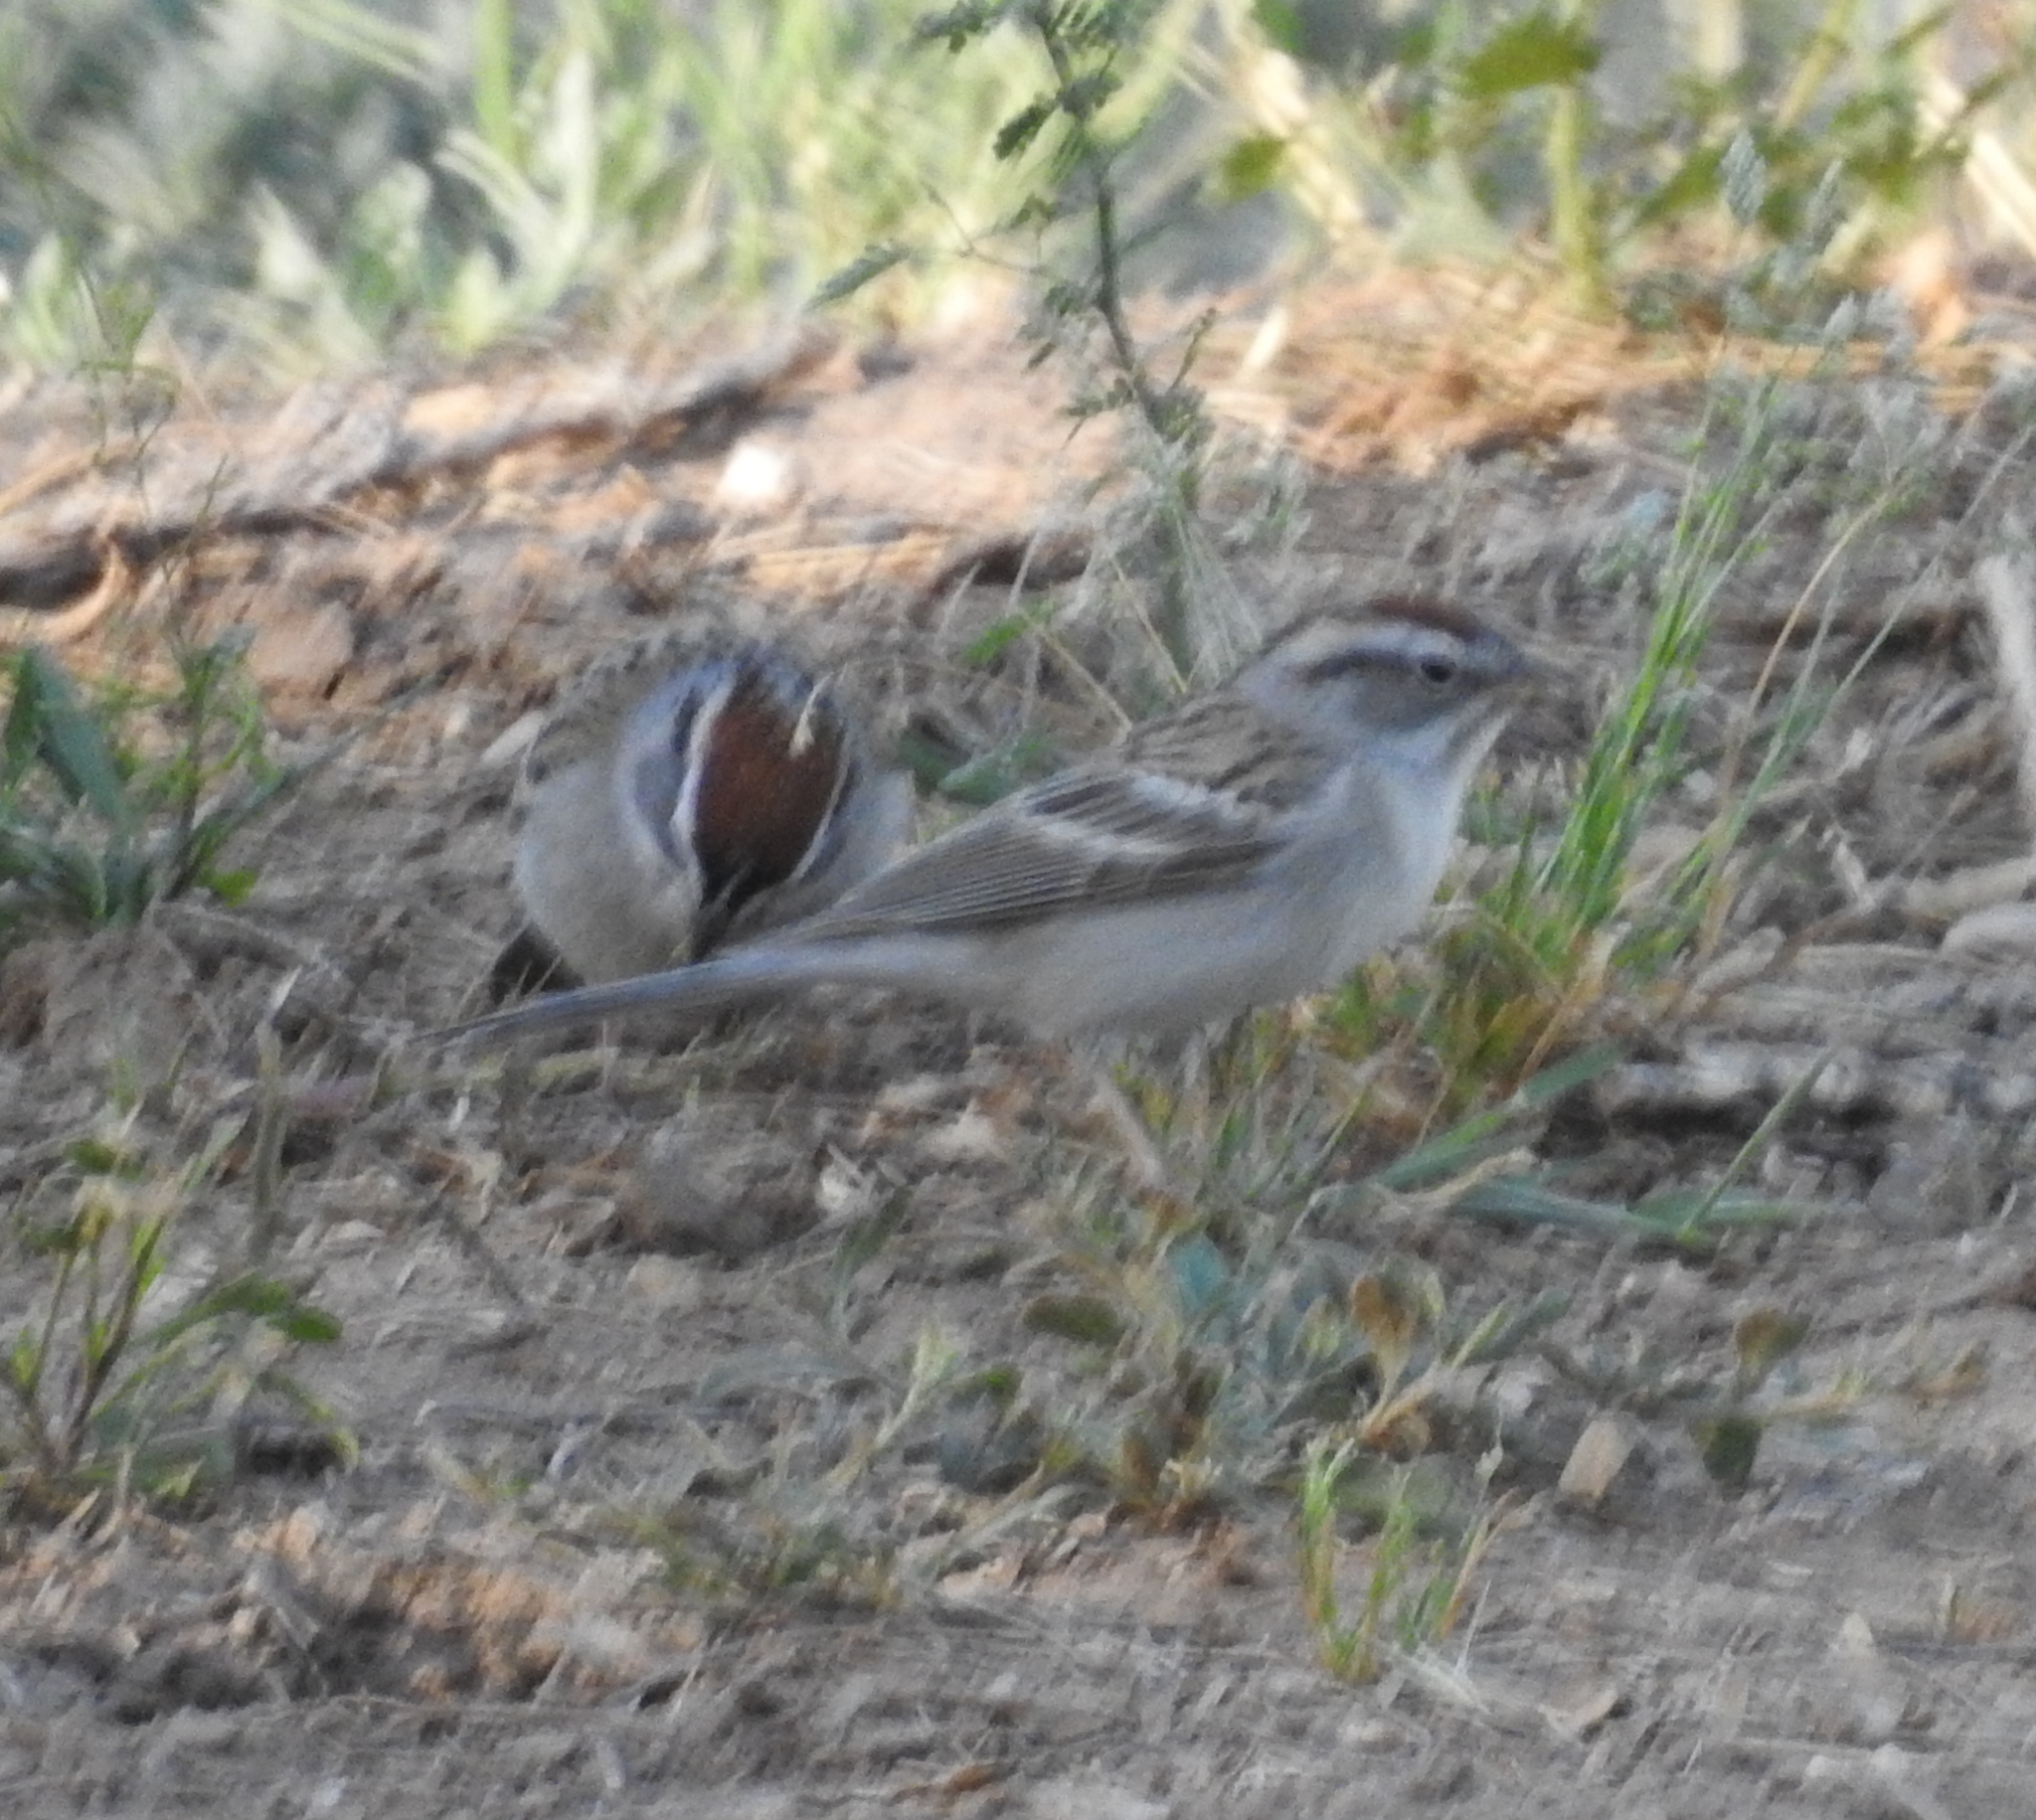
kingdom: Animalia
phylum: Chordata
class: Aves
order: Passeriformes
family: Passerellidae
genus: Spizella
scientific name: Spizella passerina
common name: Chipping sparrow
